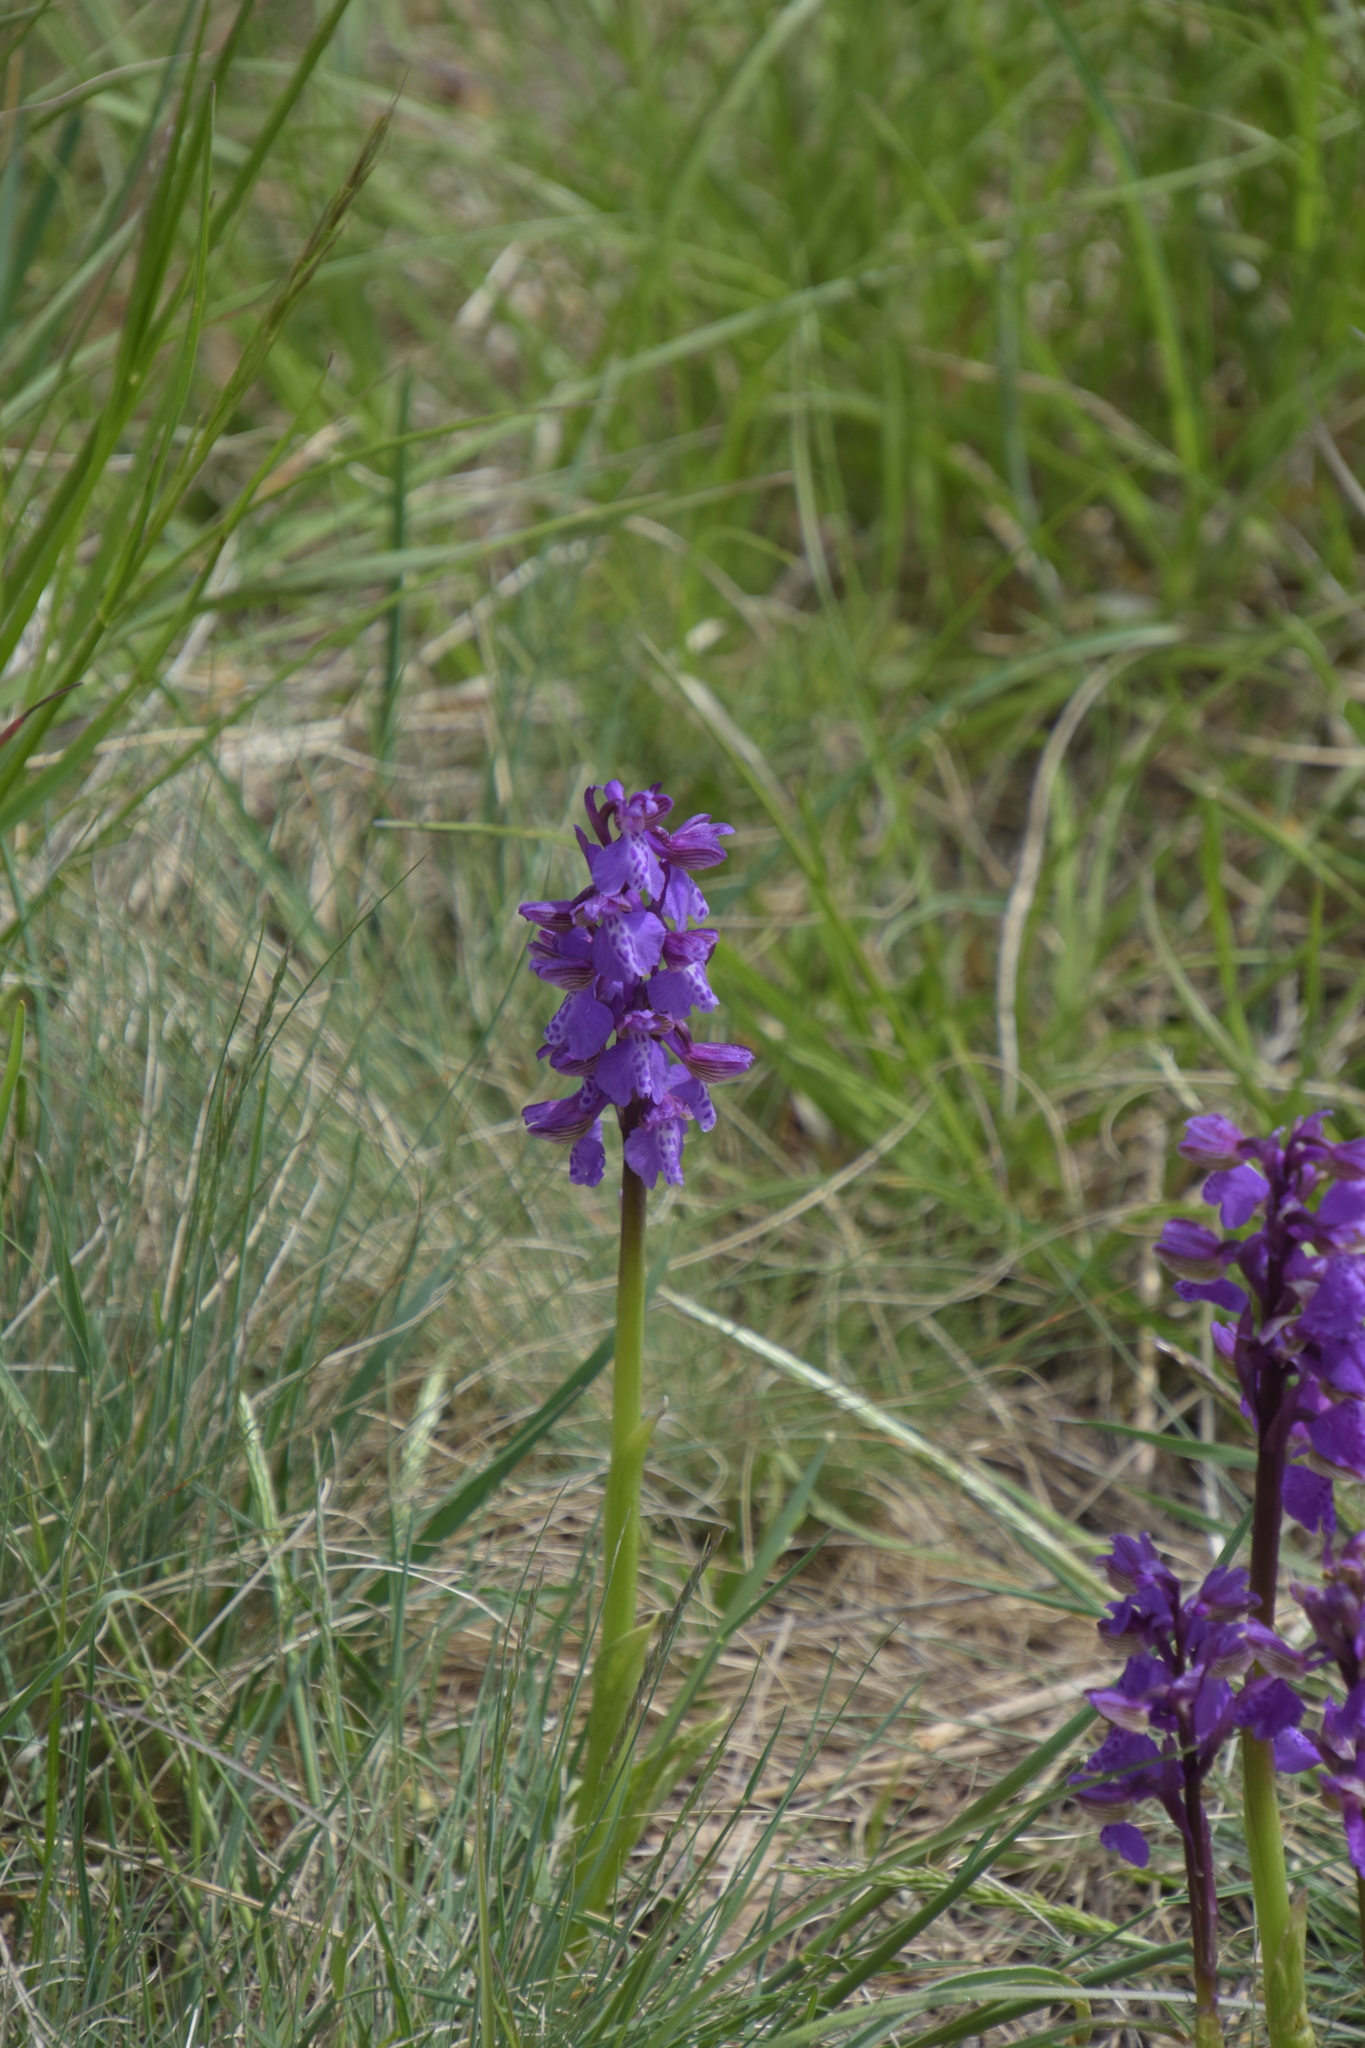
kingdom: Plantae
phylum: Tracheophyta
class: Liliopsida
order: Asparagales
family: Orchidaceae
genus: Anacamptis
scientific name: Anacamptis morio
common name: Green-winged orchid
